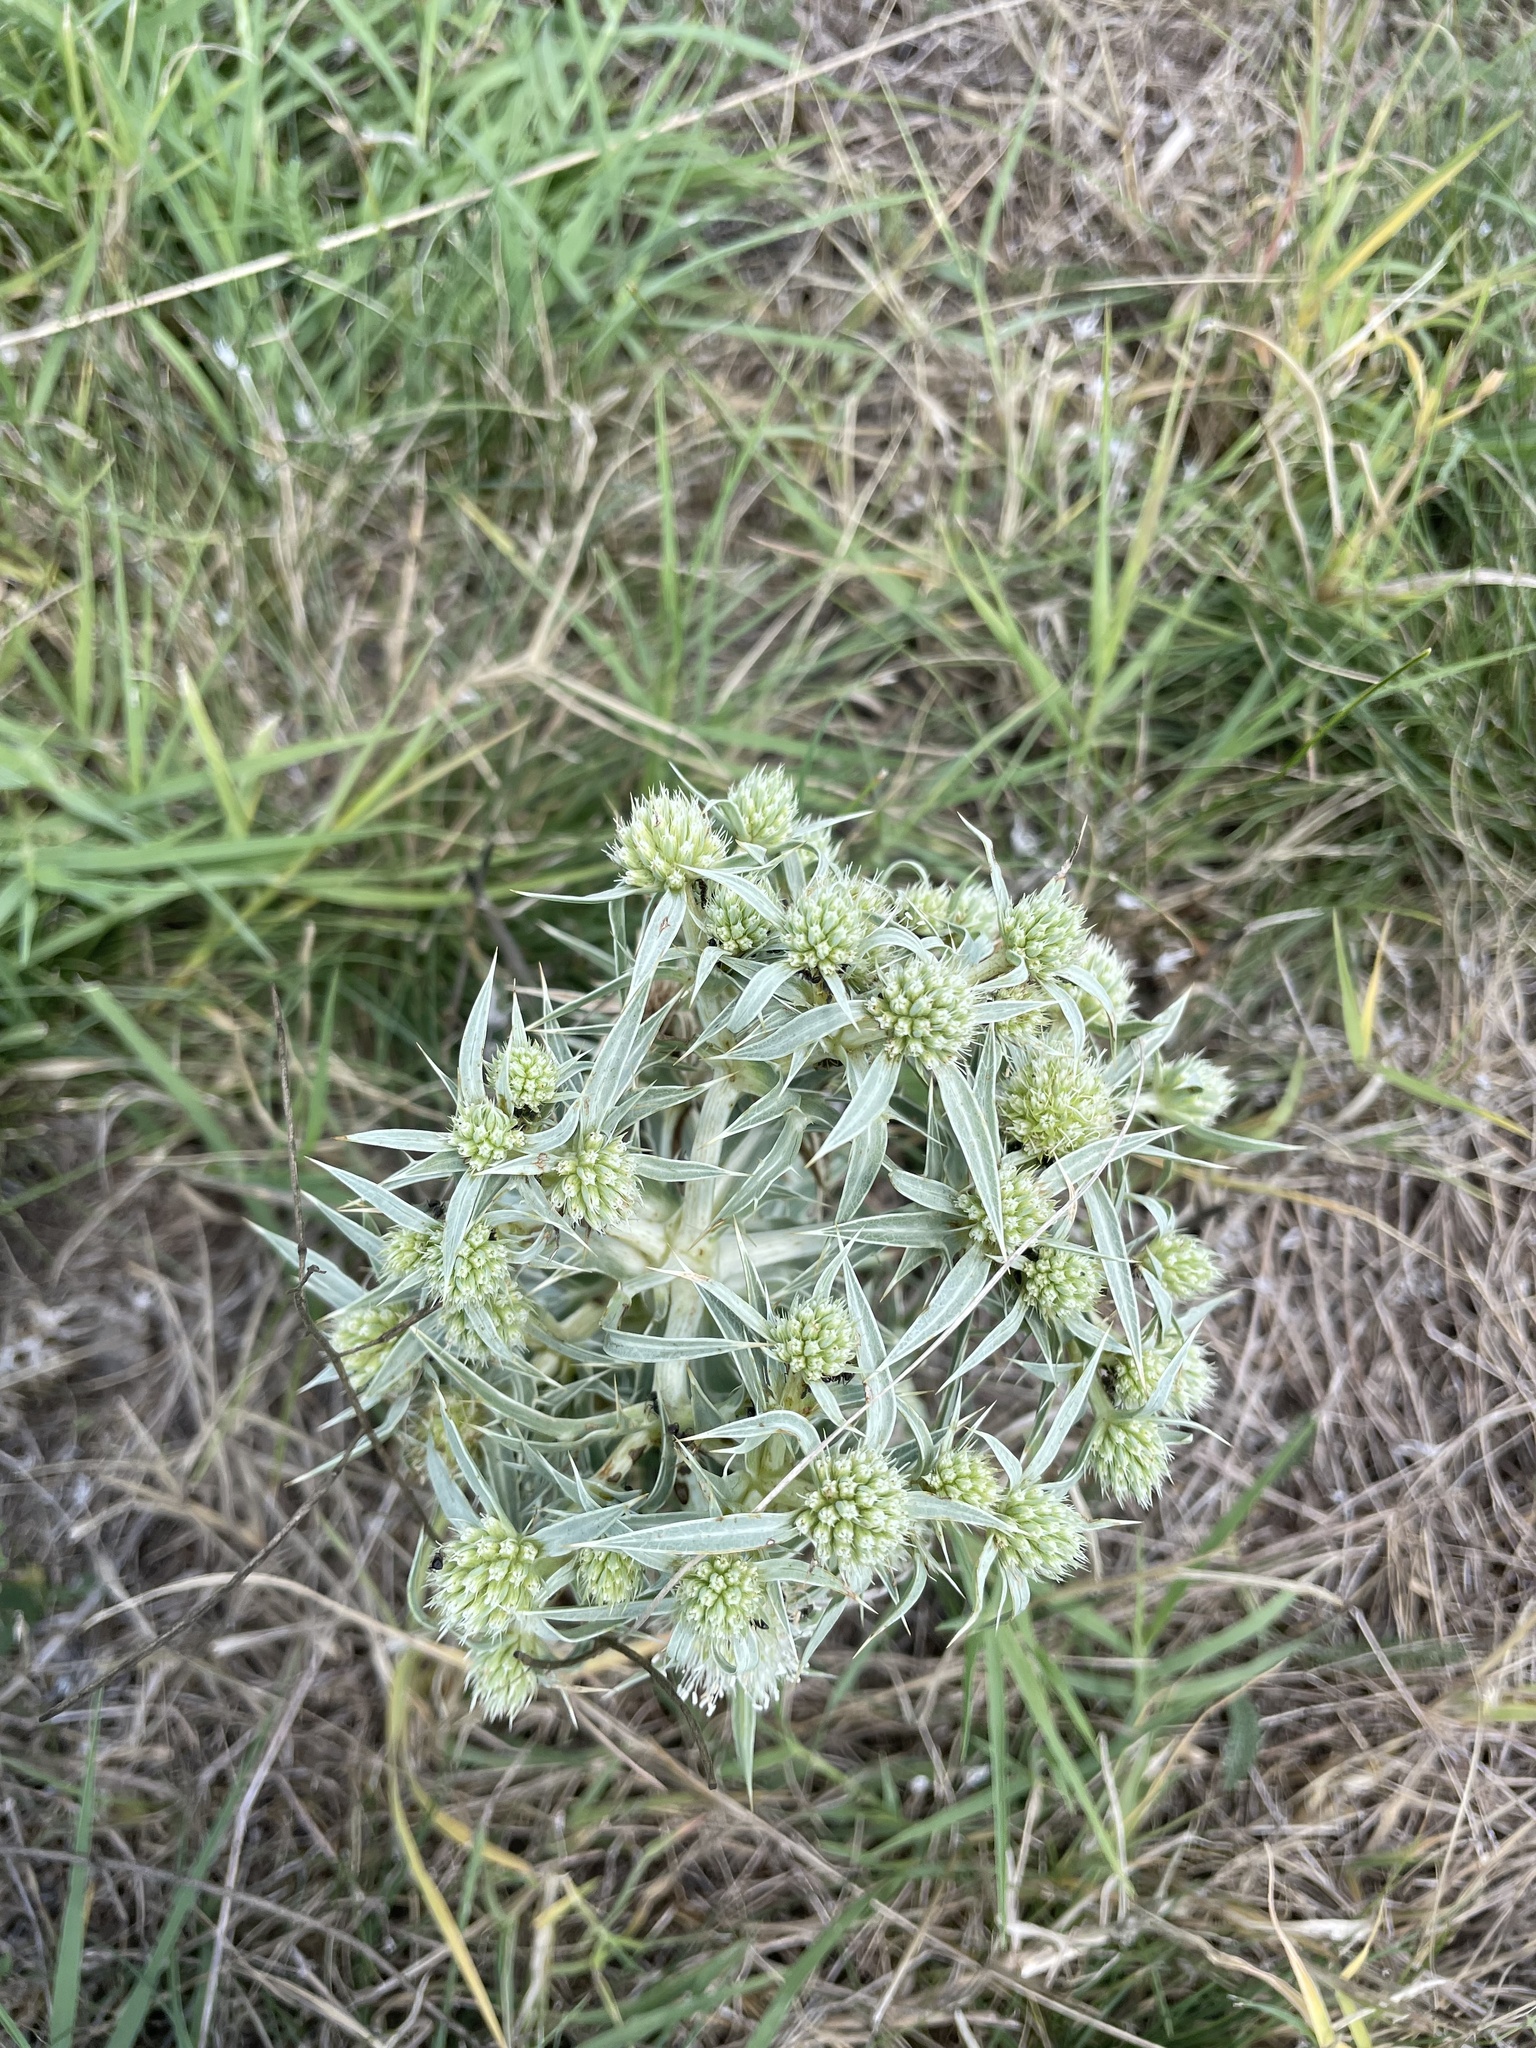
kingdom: Plantae
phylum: Tracheophyta
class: Magnoliopsida
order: Apiales
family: Apiaceae
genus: Eryngium
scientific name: Eryngium campestre
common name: Field eryngo
